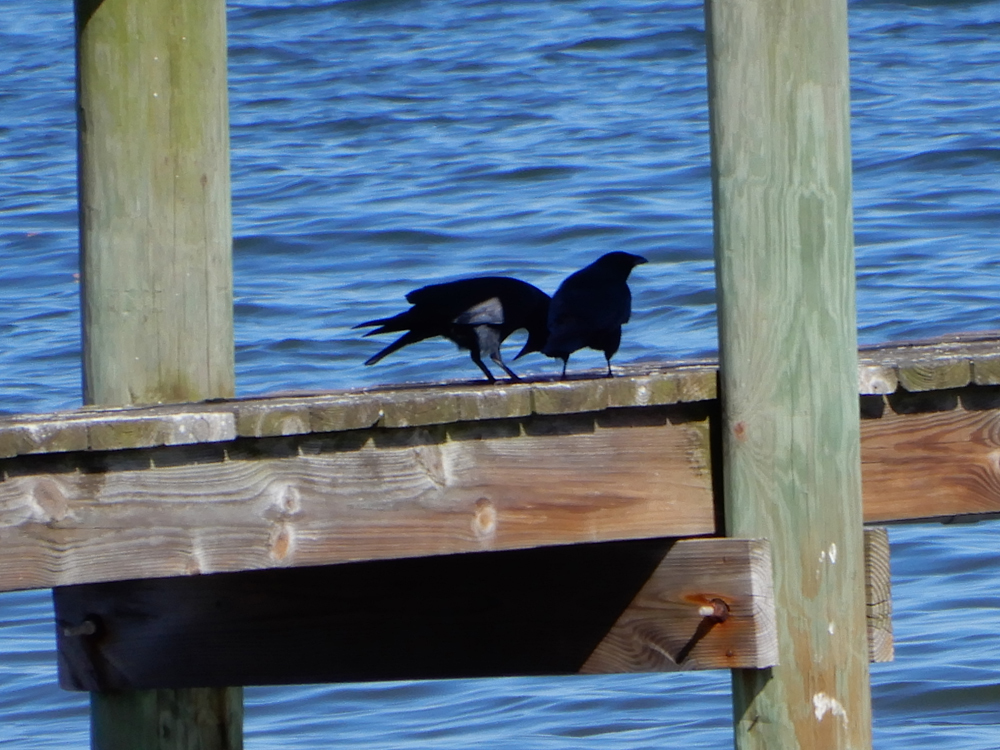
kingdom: Animalia
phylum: Chordata
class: Aves
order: Passeriformes
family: Corvidae
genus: Corvus
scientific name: Corvus ossifragus
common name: Fish crow
